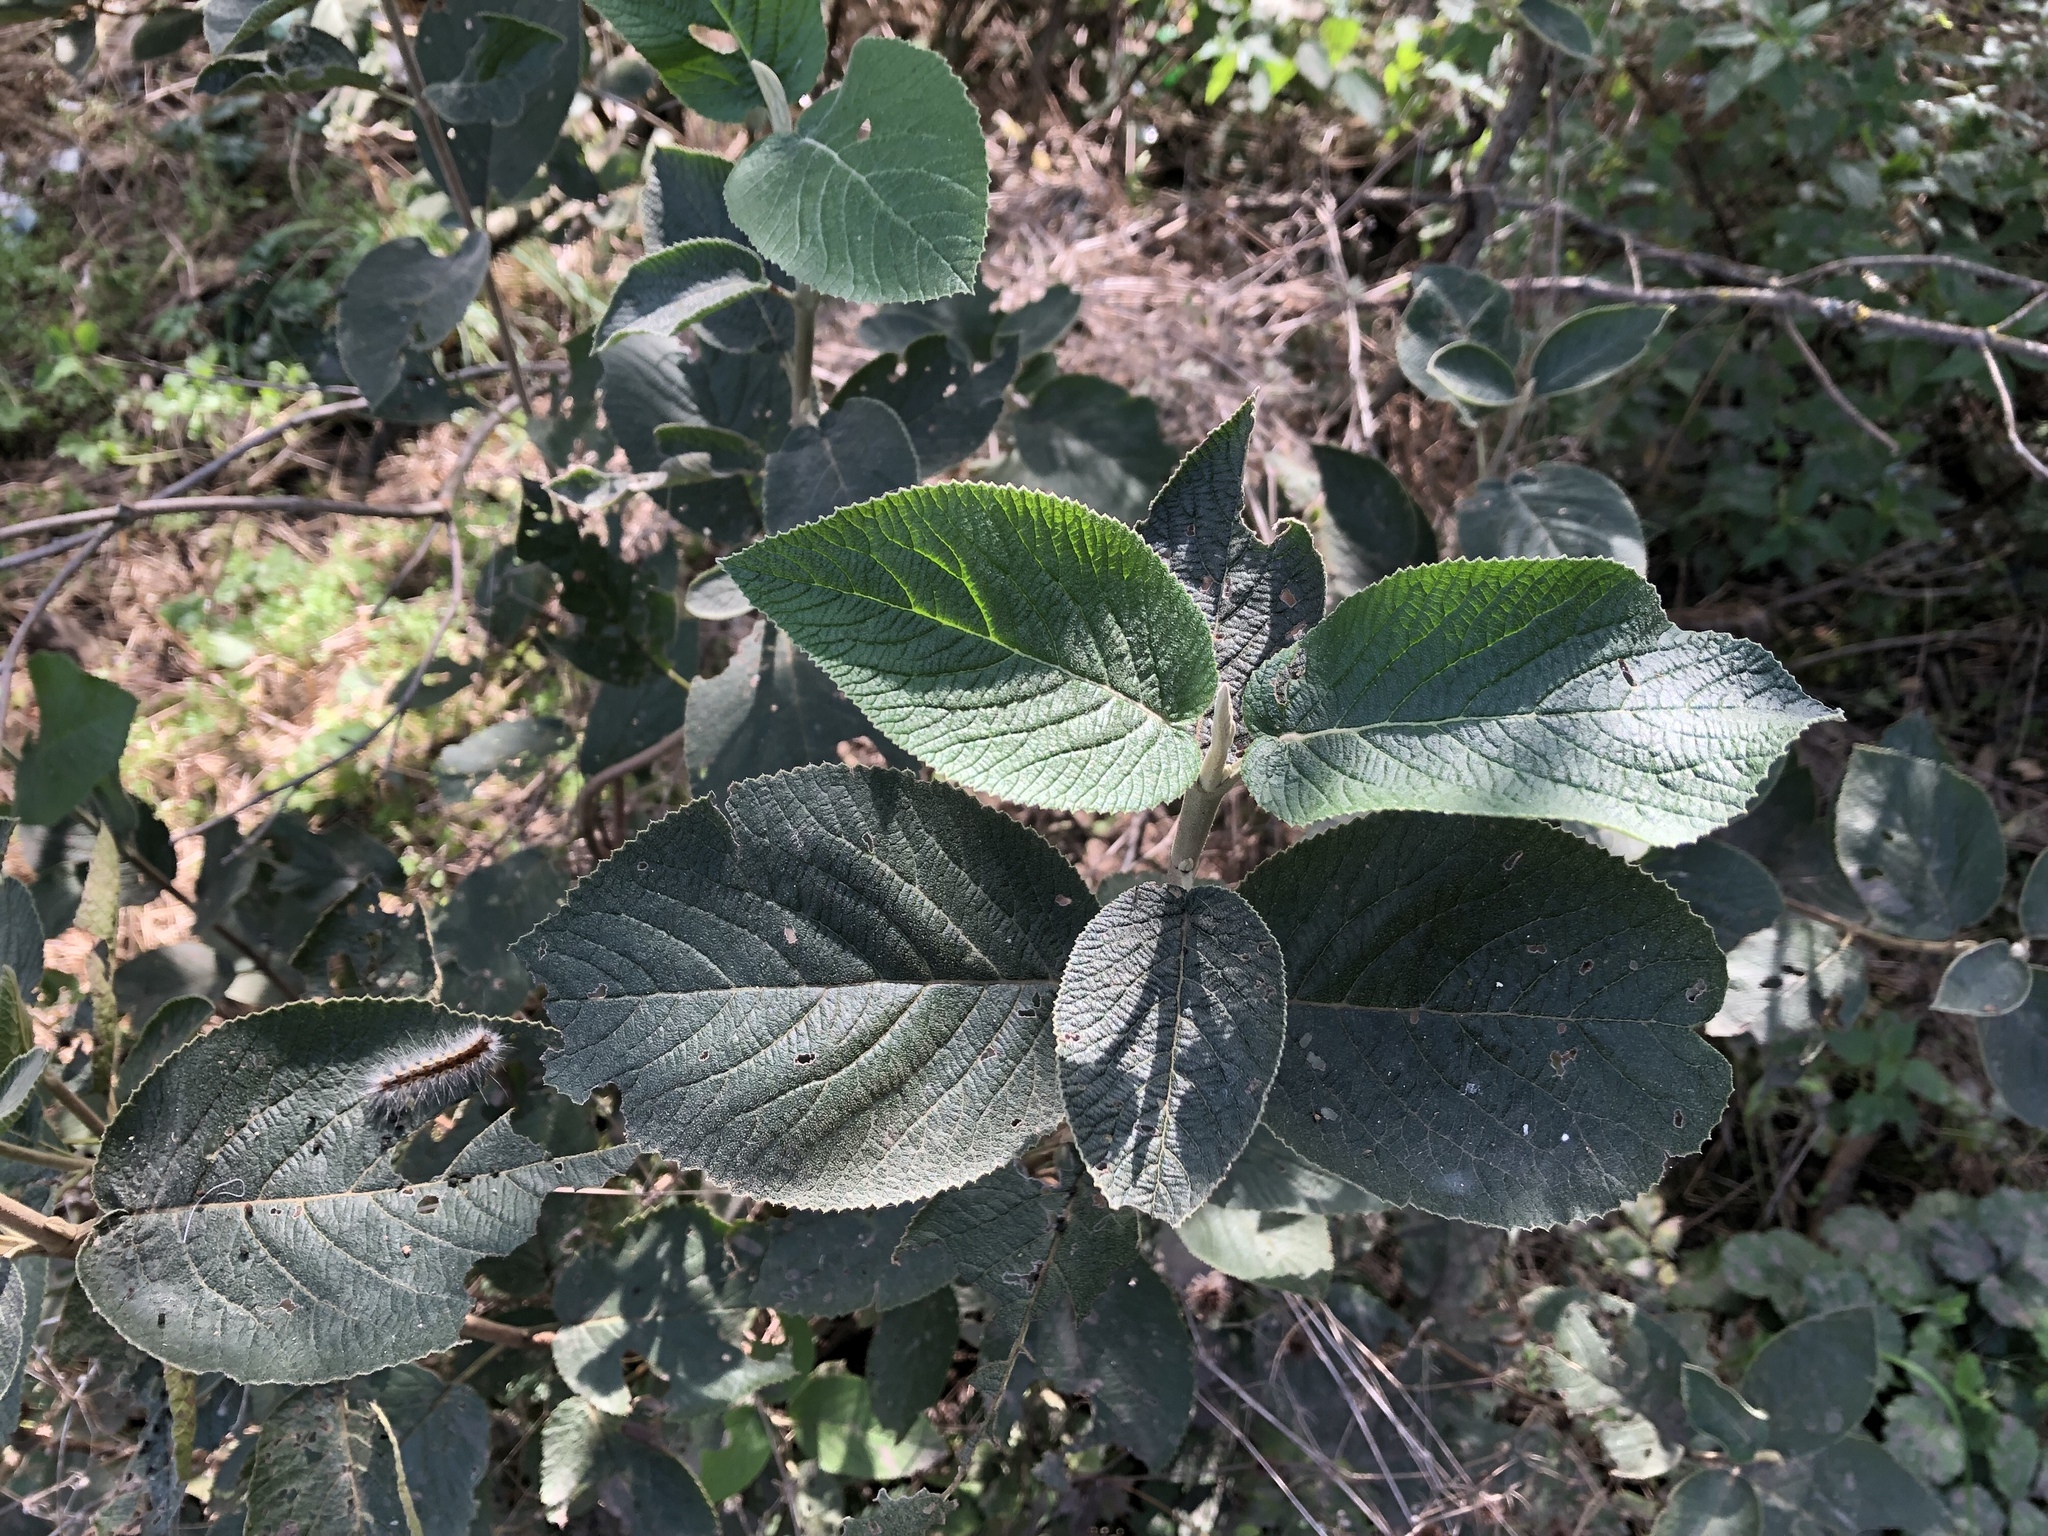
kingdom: Plantae
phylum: Tracheophyta
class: Magnoliopsida
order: Dipsacales
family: Viburnaceae
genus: Viburnum
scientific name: Viburnum lantana
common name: Wayfaring tree
